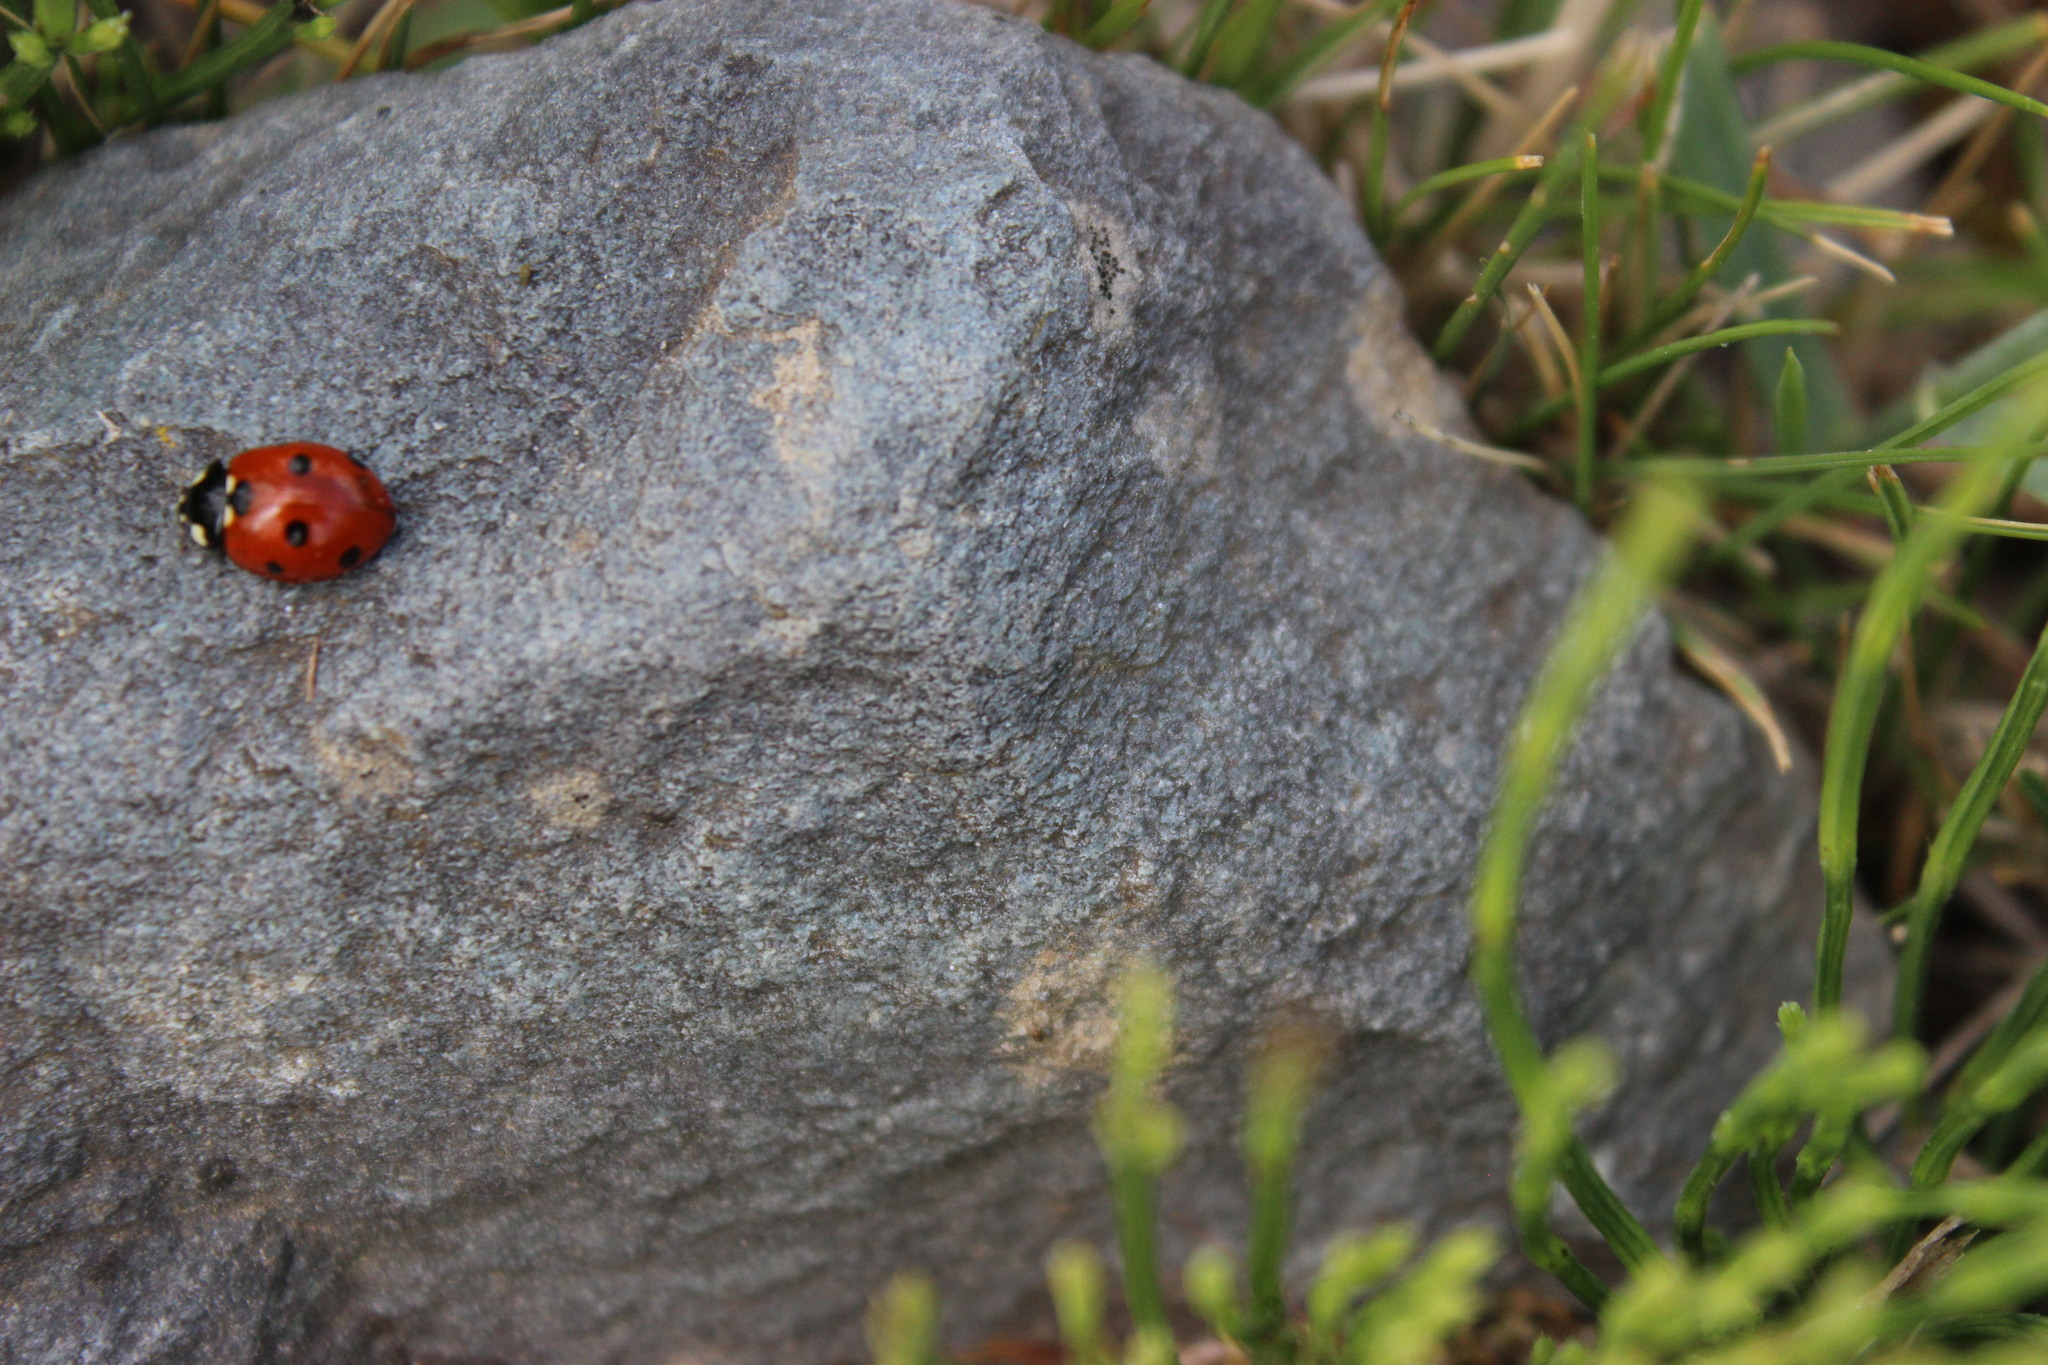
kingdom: Animalia
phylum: Arthropoda
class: Insecta
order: Coleoptera
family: Coccinellidae
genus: Coccinella
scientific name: Coccinella septempunctata
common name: Sevenspotted lady beetle
